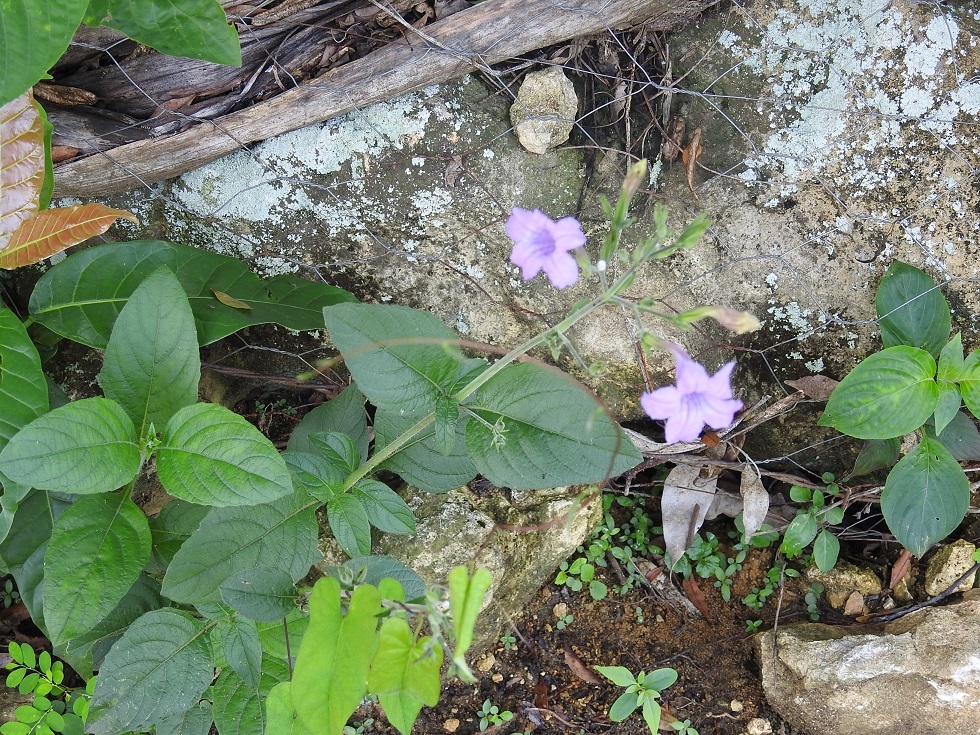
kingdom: Plantae
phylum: Tracheophyta
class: Magnoliopsida
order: Lamiales
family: Acanthaceae
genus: Ruellia
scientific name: Ruellia ciliatiflora
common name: Hairyflower wild petunia
